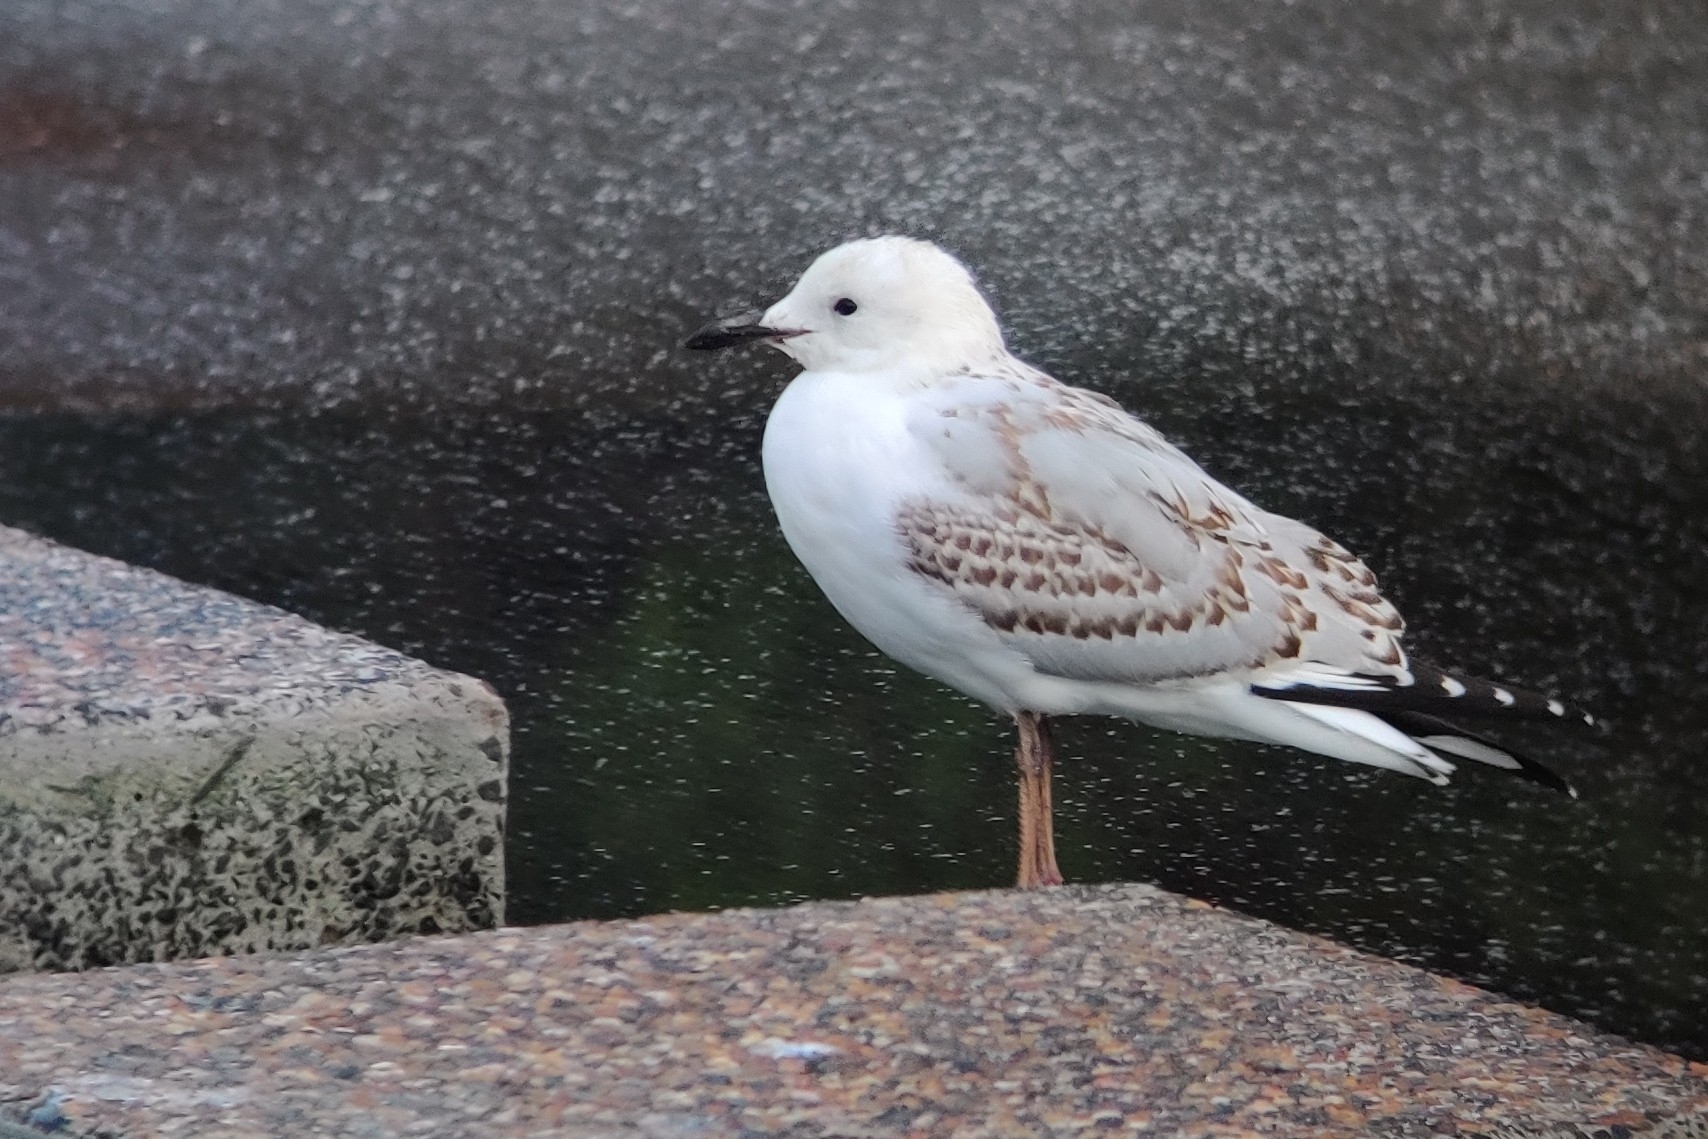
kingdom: Animalia
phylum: Chordata
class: Aves
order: Charadriiformes
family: Laridae
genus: Chroicocephalus
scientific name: Chroicocephalus novaehollandiae
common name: Silver gull
